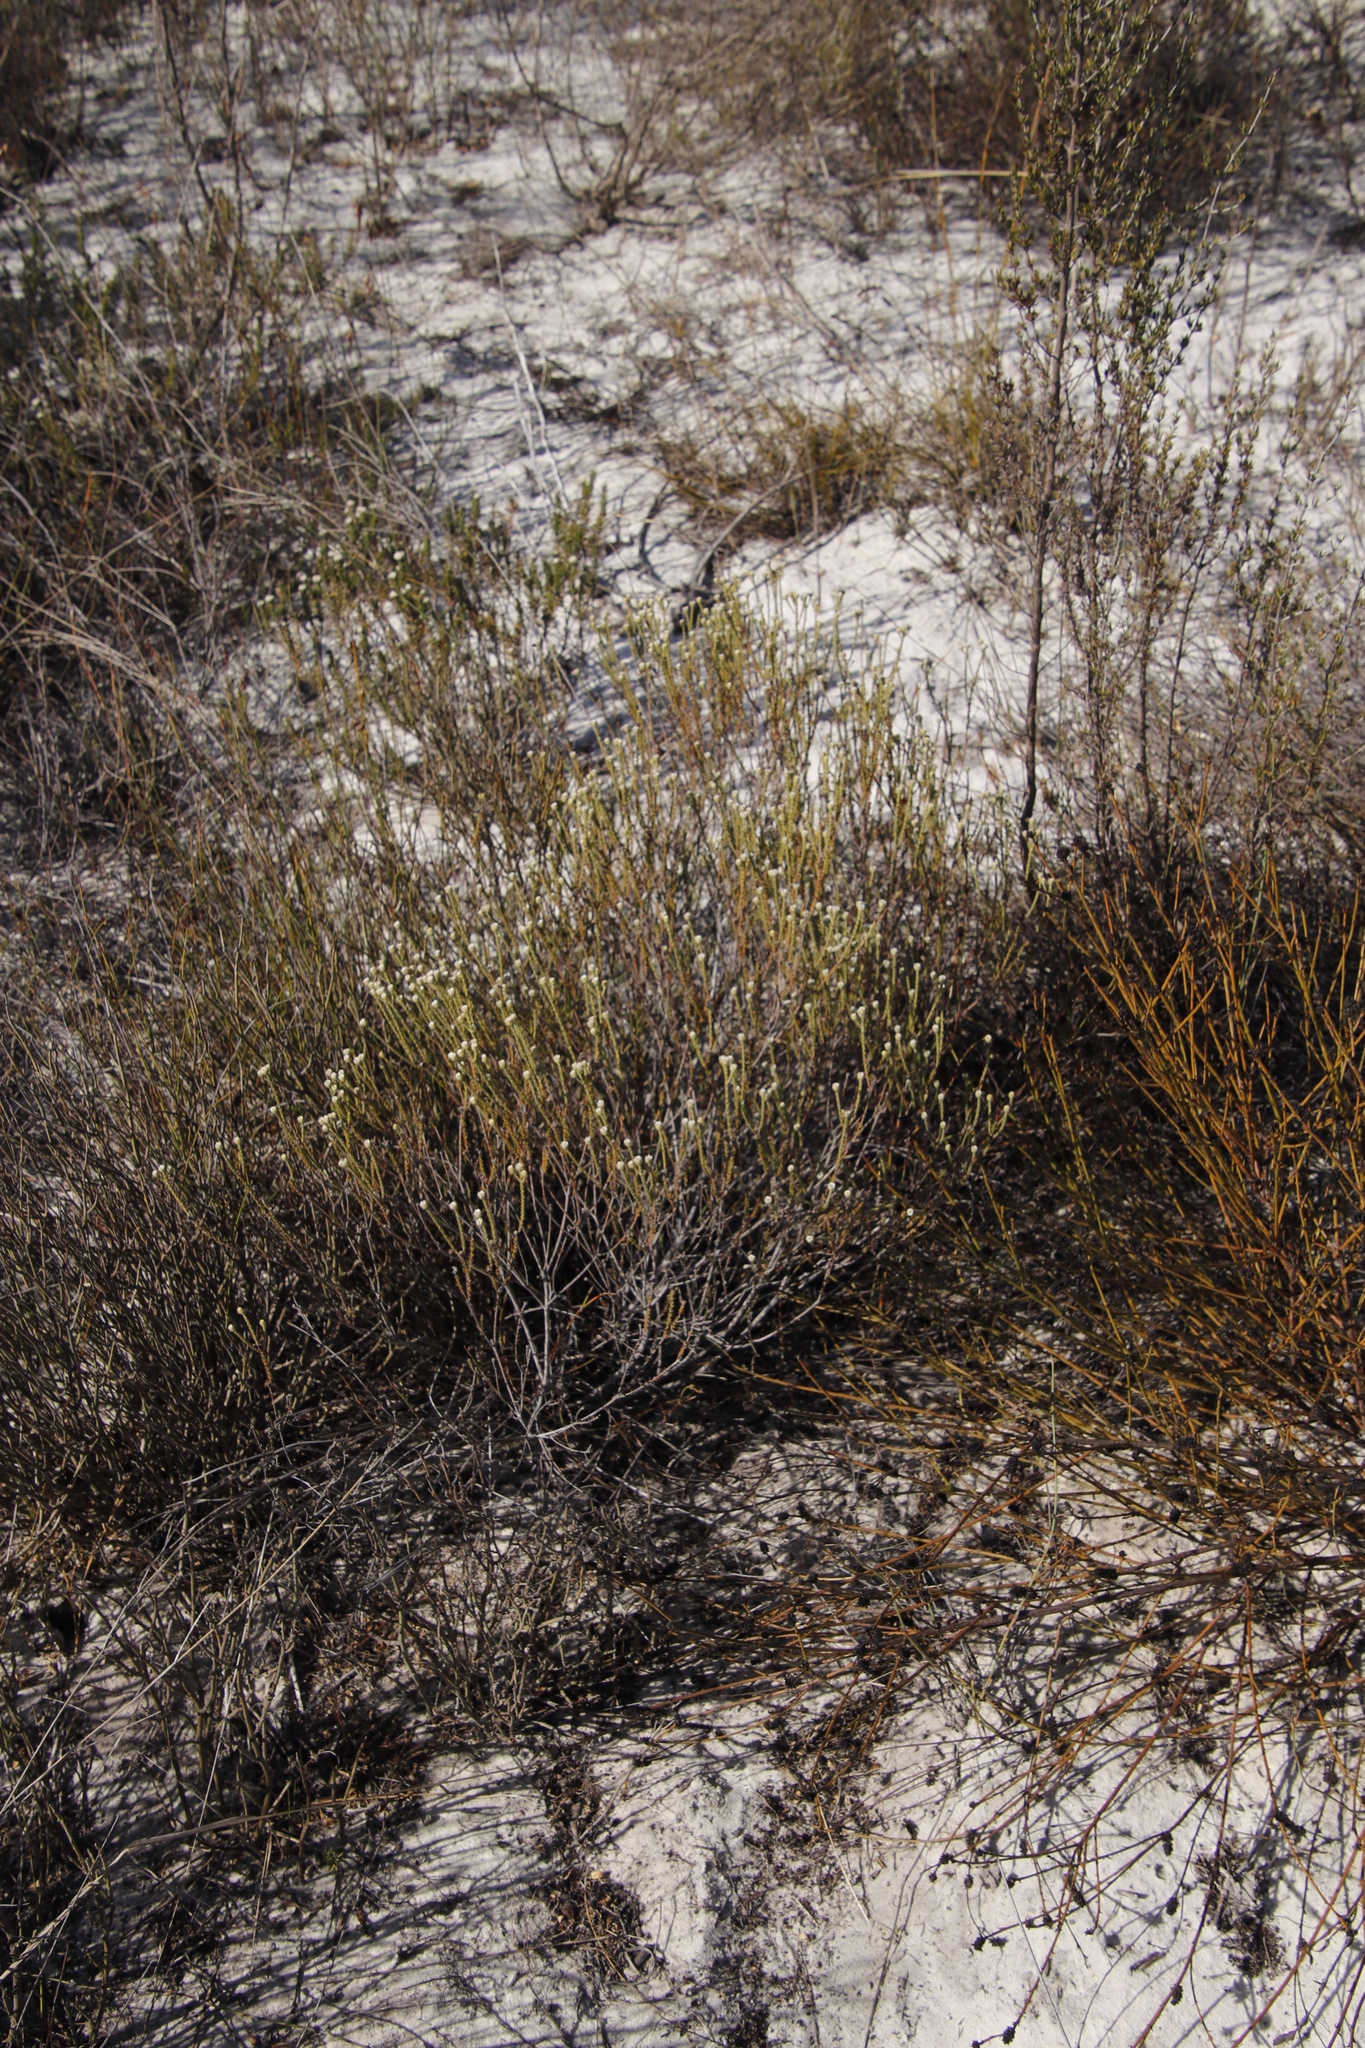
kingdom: Plantae
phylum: Tracheophyta
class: Magnoliopsida
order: Bruniales
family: Bruniaceae
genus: Staavia
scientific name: Staavia radiata
